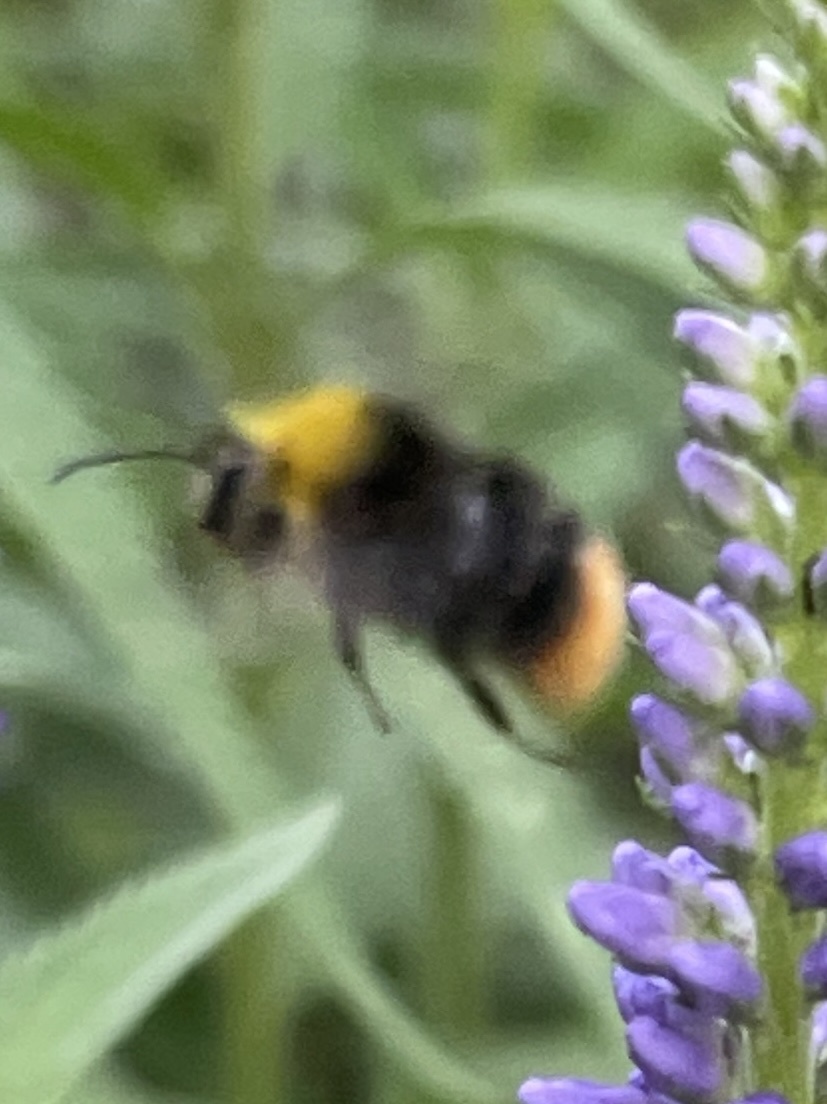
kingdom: Animalia
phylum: Arthropoda
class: Insecta
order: Hymenoptera
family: Apidae
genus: Bombus
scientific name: Bombus pratorum
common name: Early humble-bee
